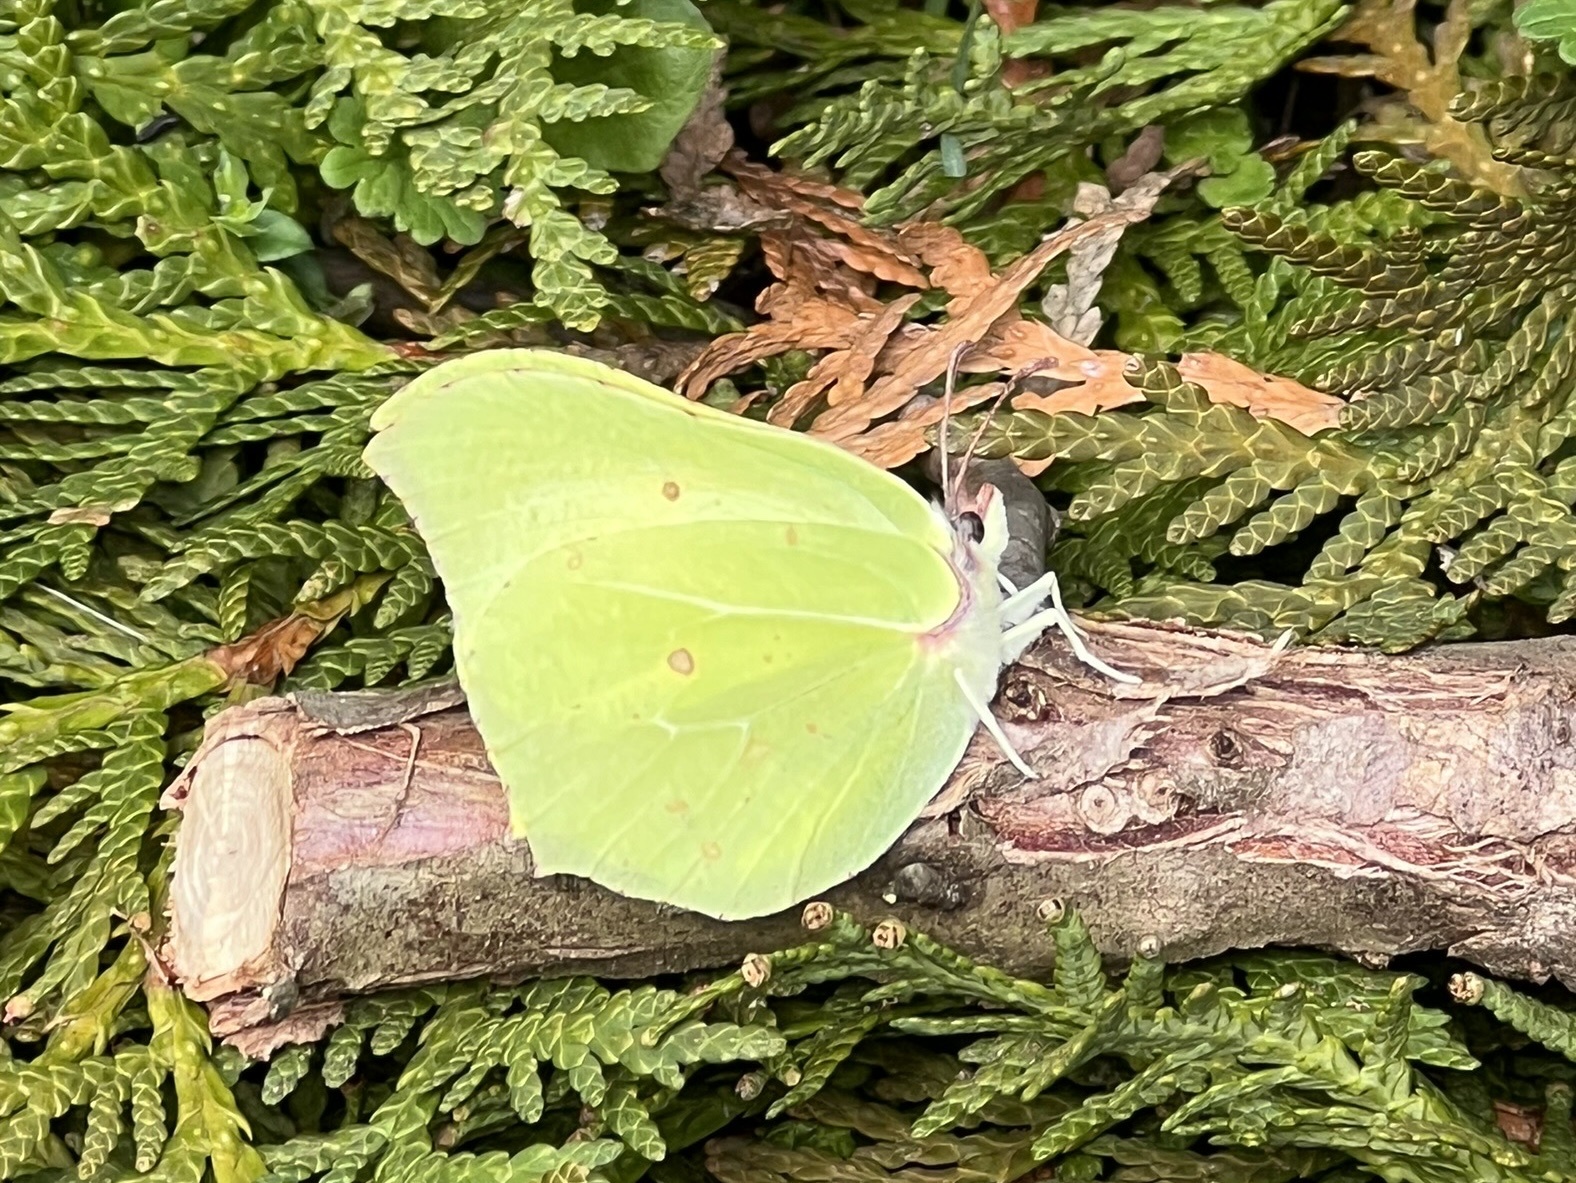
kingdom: Animalia
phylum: Arthropoda
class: Insecta
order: Lepidoptera
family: Pieridae
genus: Gonepteryx
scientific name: Gonepteryx rhamni
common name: Brimstone
